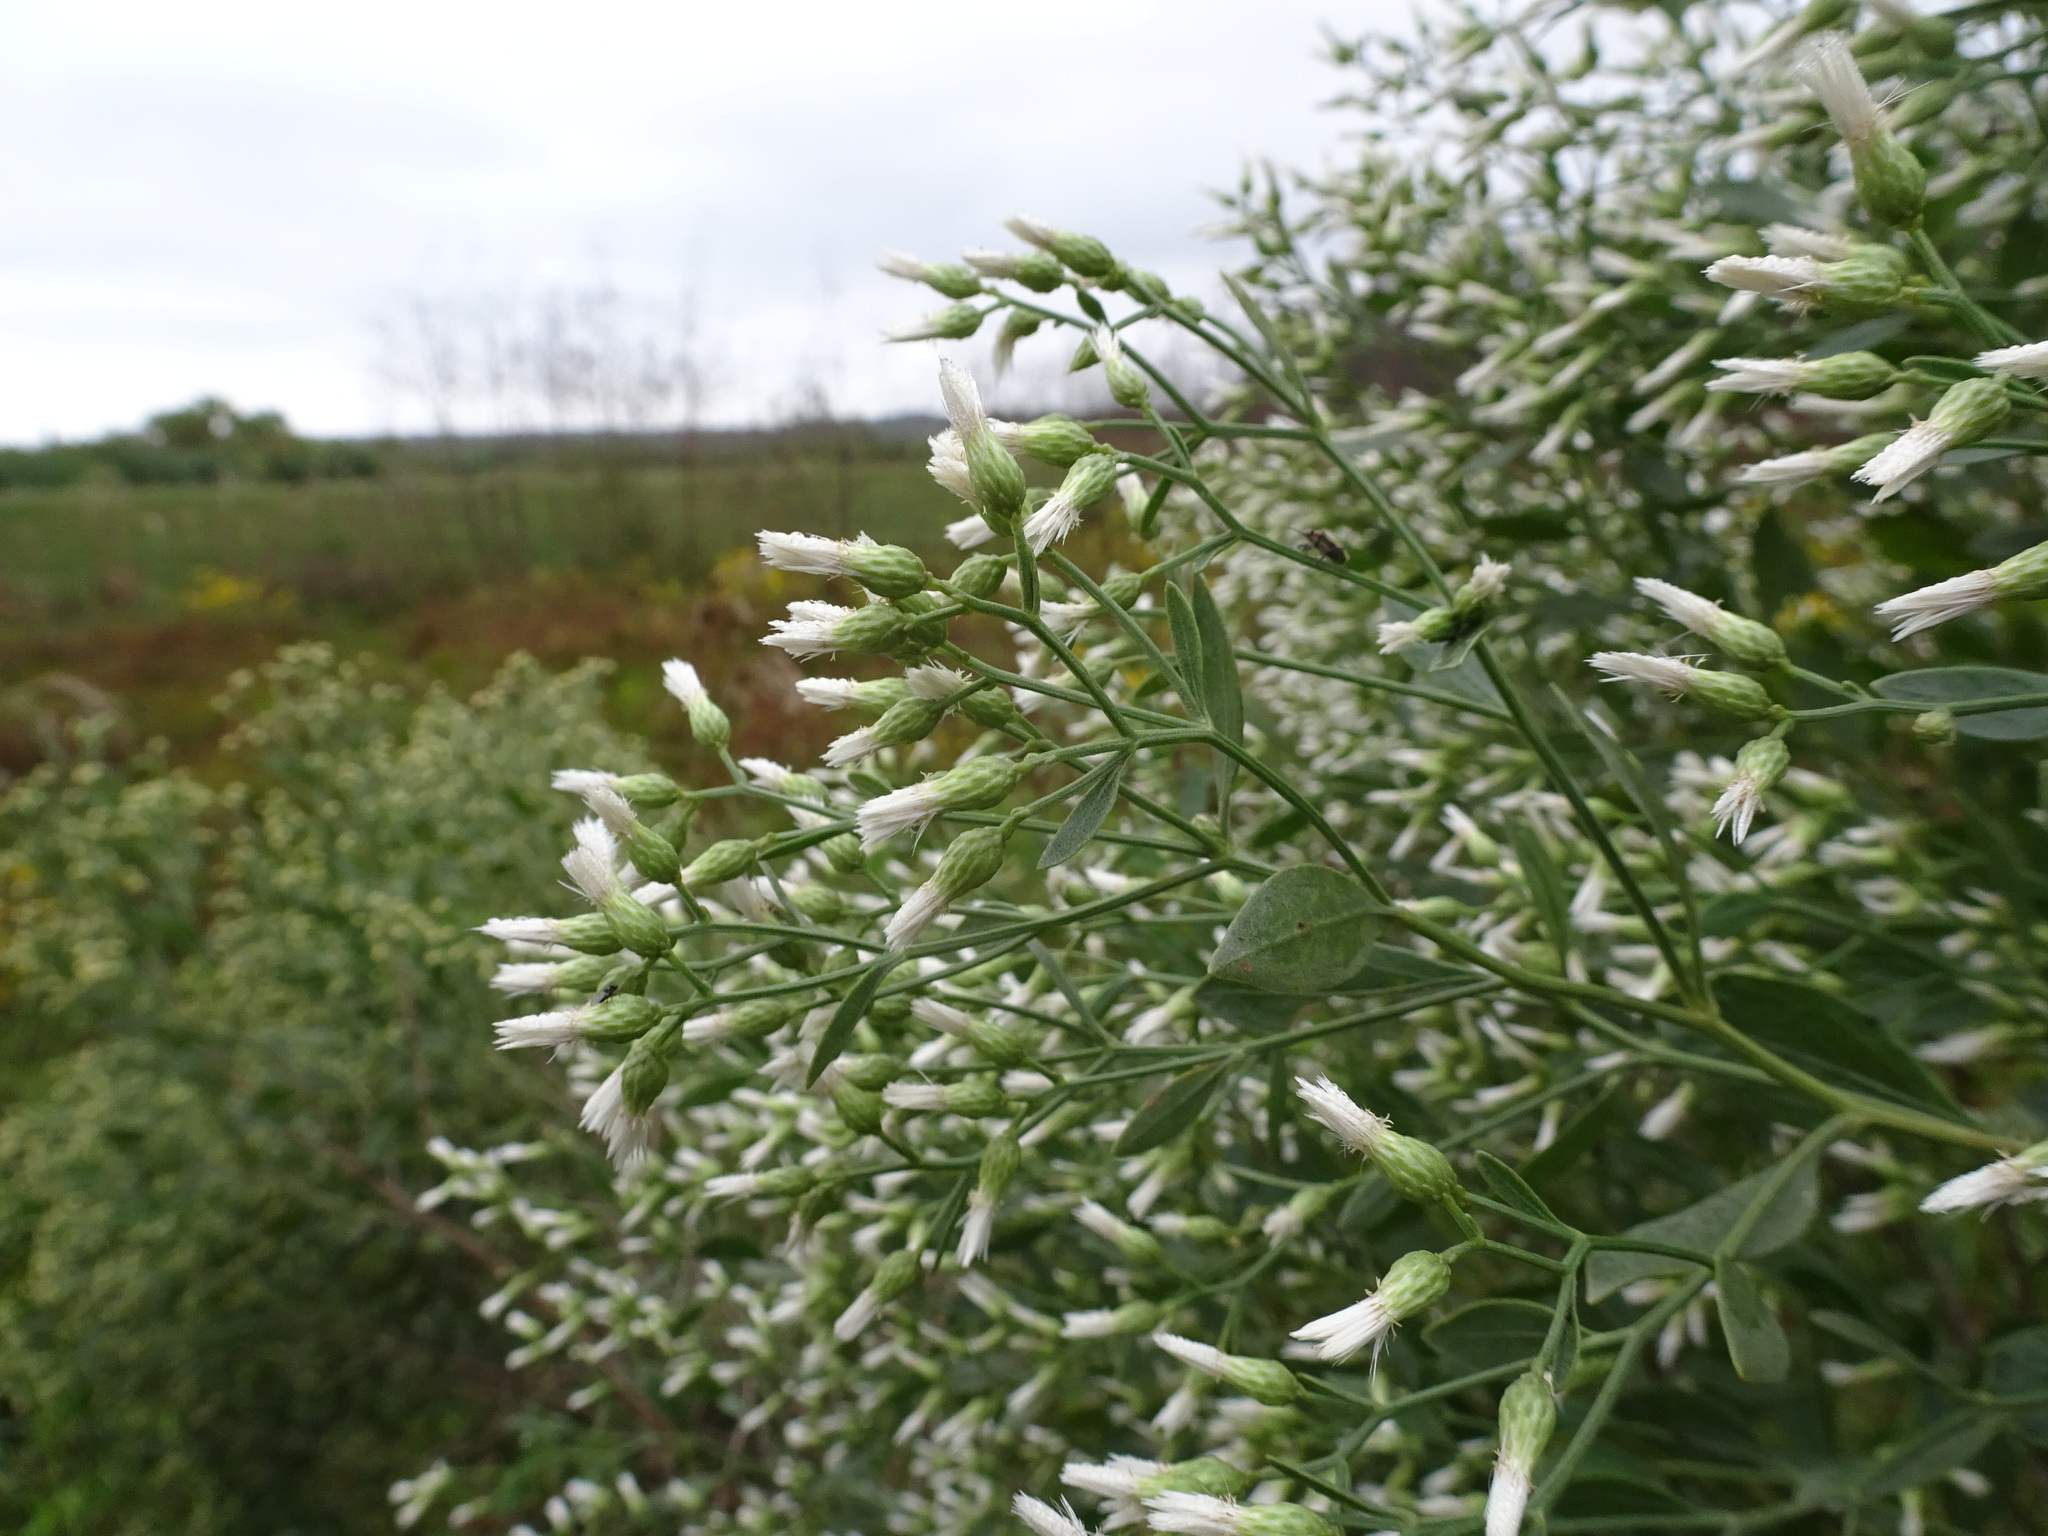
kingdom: Plantae
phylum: Tracheophyta
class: Magnoliopsida
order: Asterales
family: Asteraceae
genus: Baccharis
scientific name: Baccharis halimifolia
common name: Eastern baccharis
